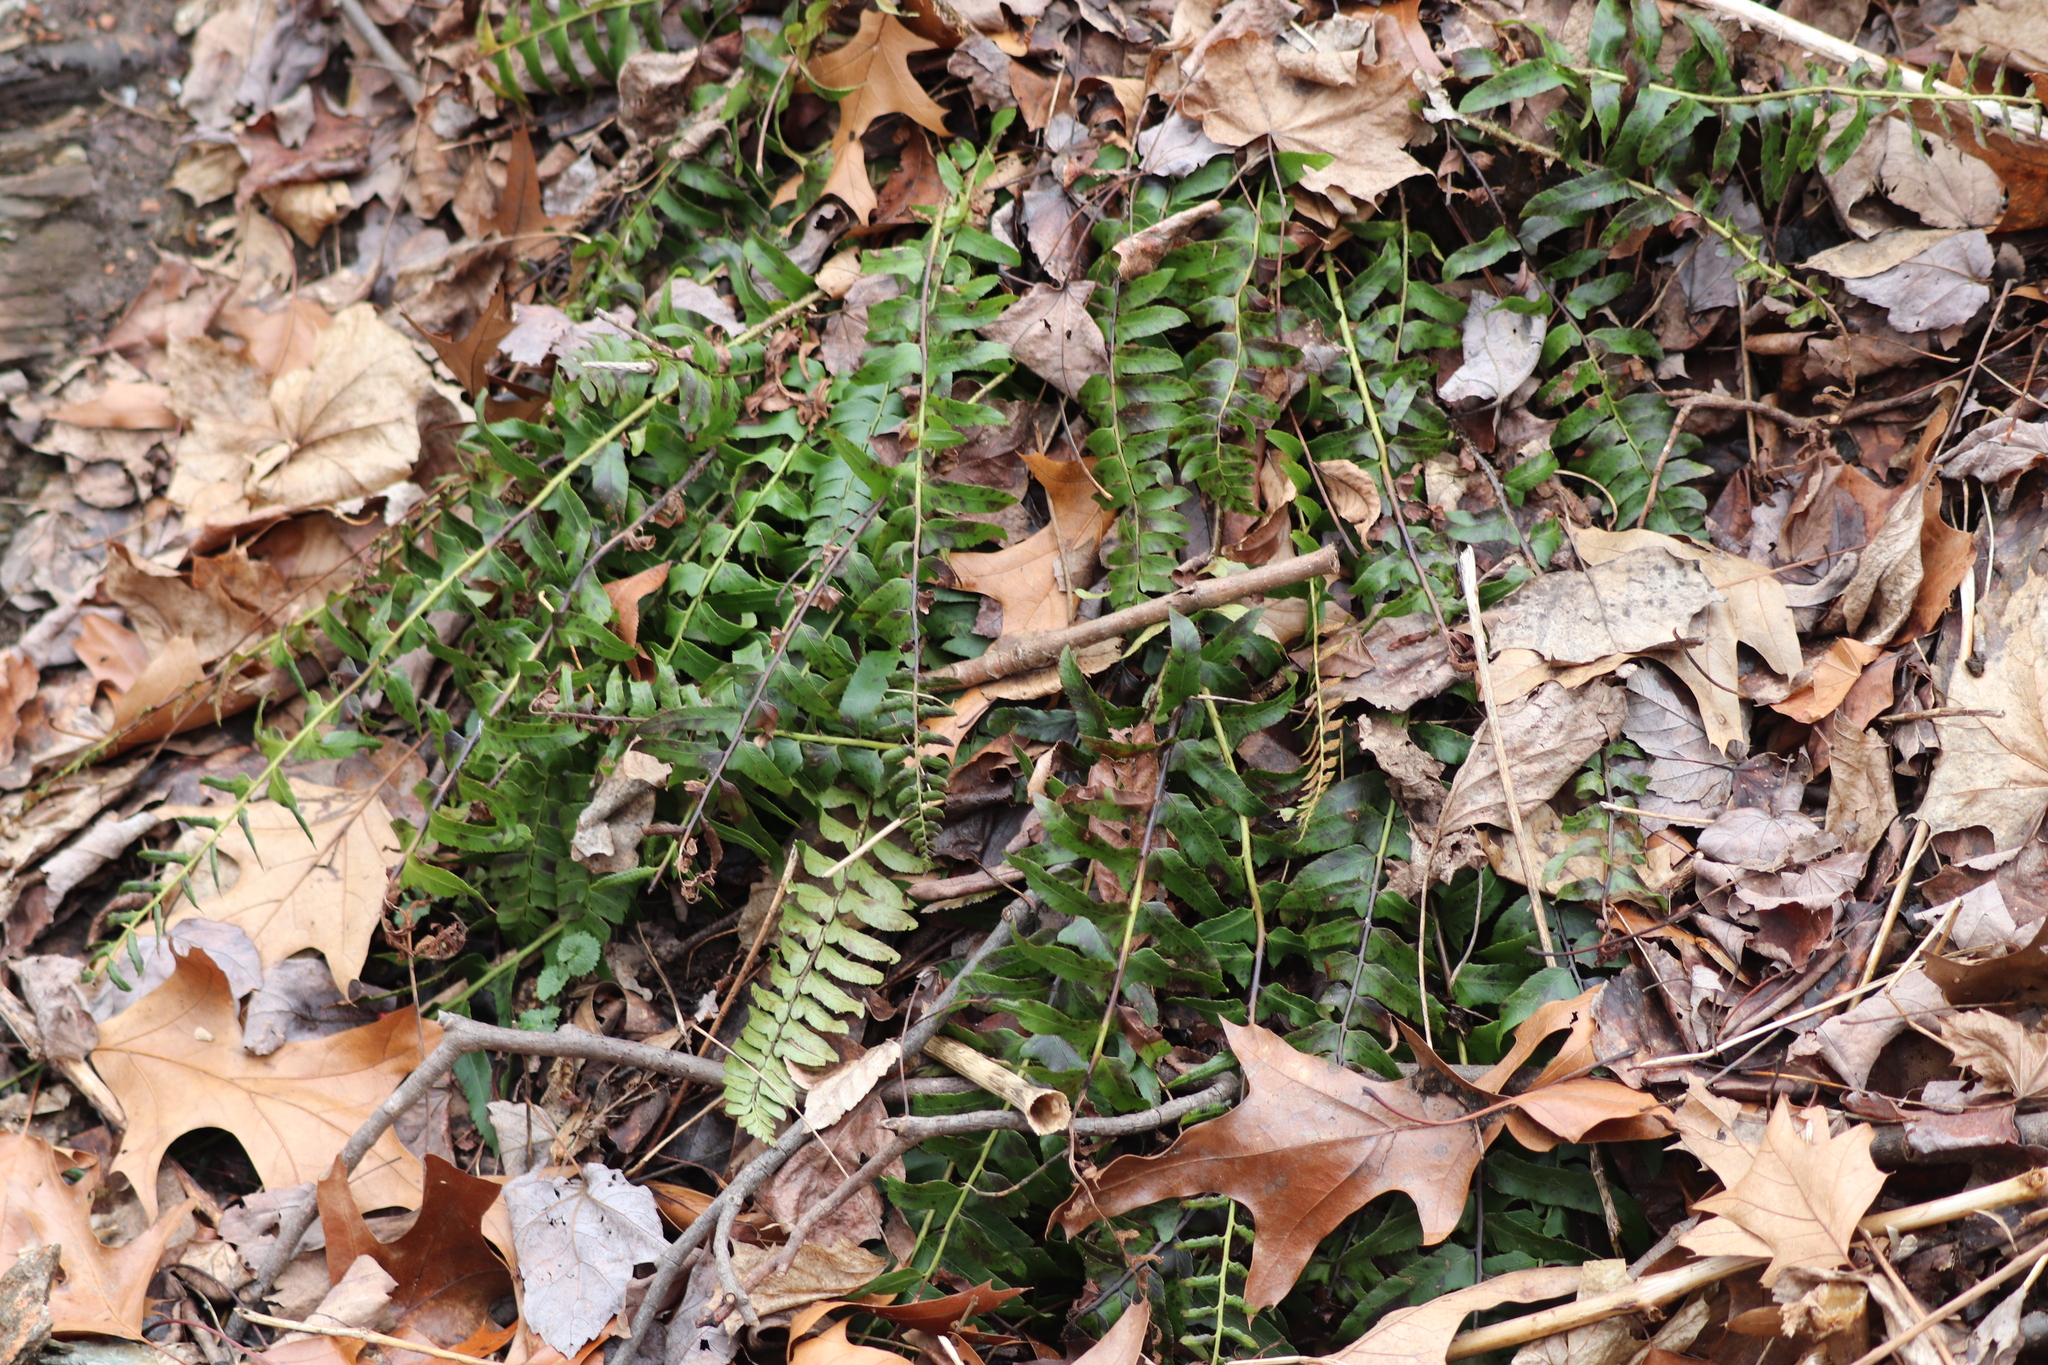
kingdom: Plantae
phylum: Tracheophyta
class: Polypodiopsida
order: Polypodiales
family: Dryopteridaceae
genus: Polystichum
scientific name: Polystichum acrostichoides
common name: Christmas fern
